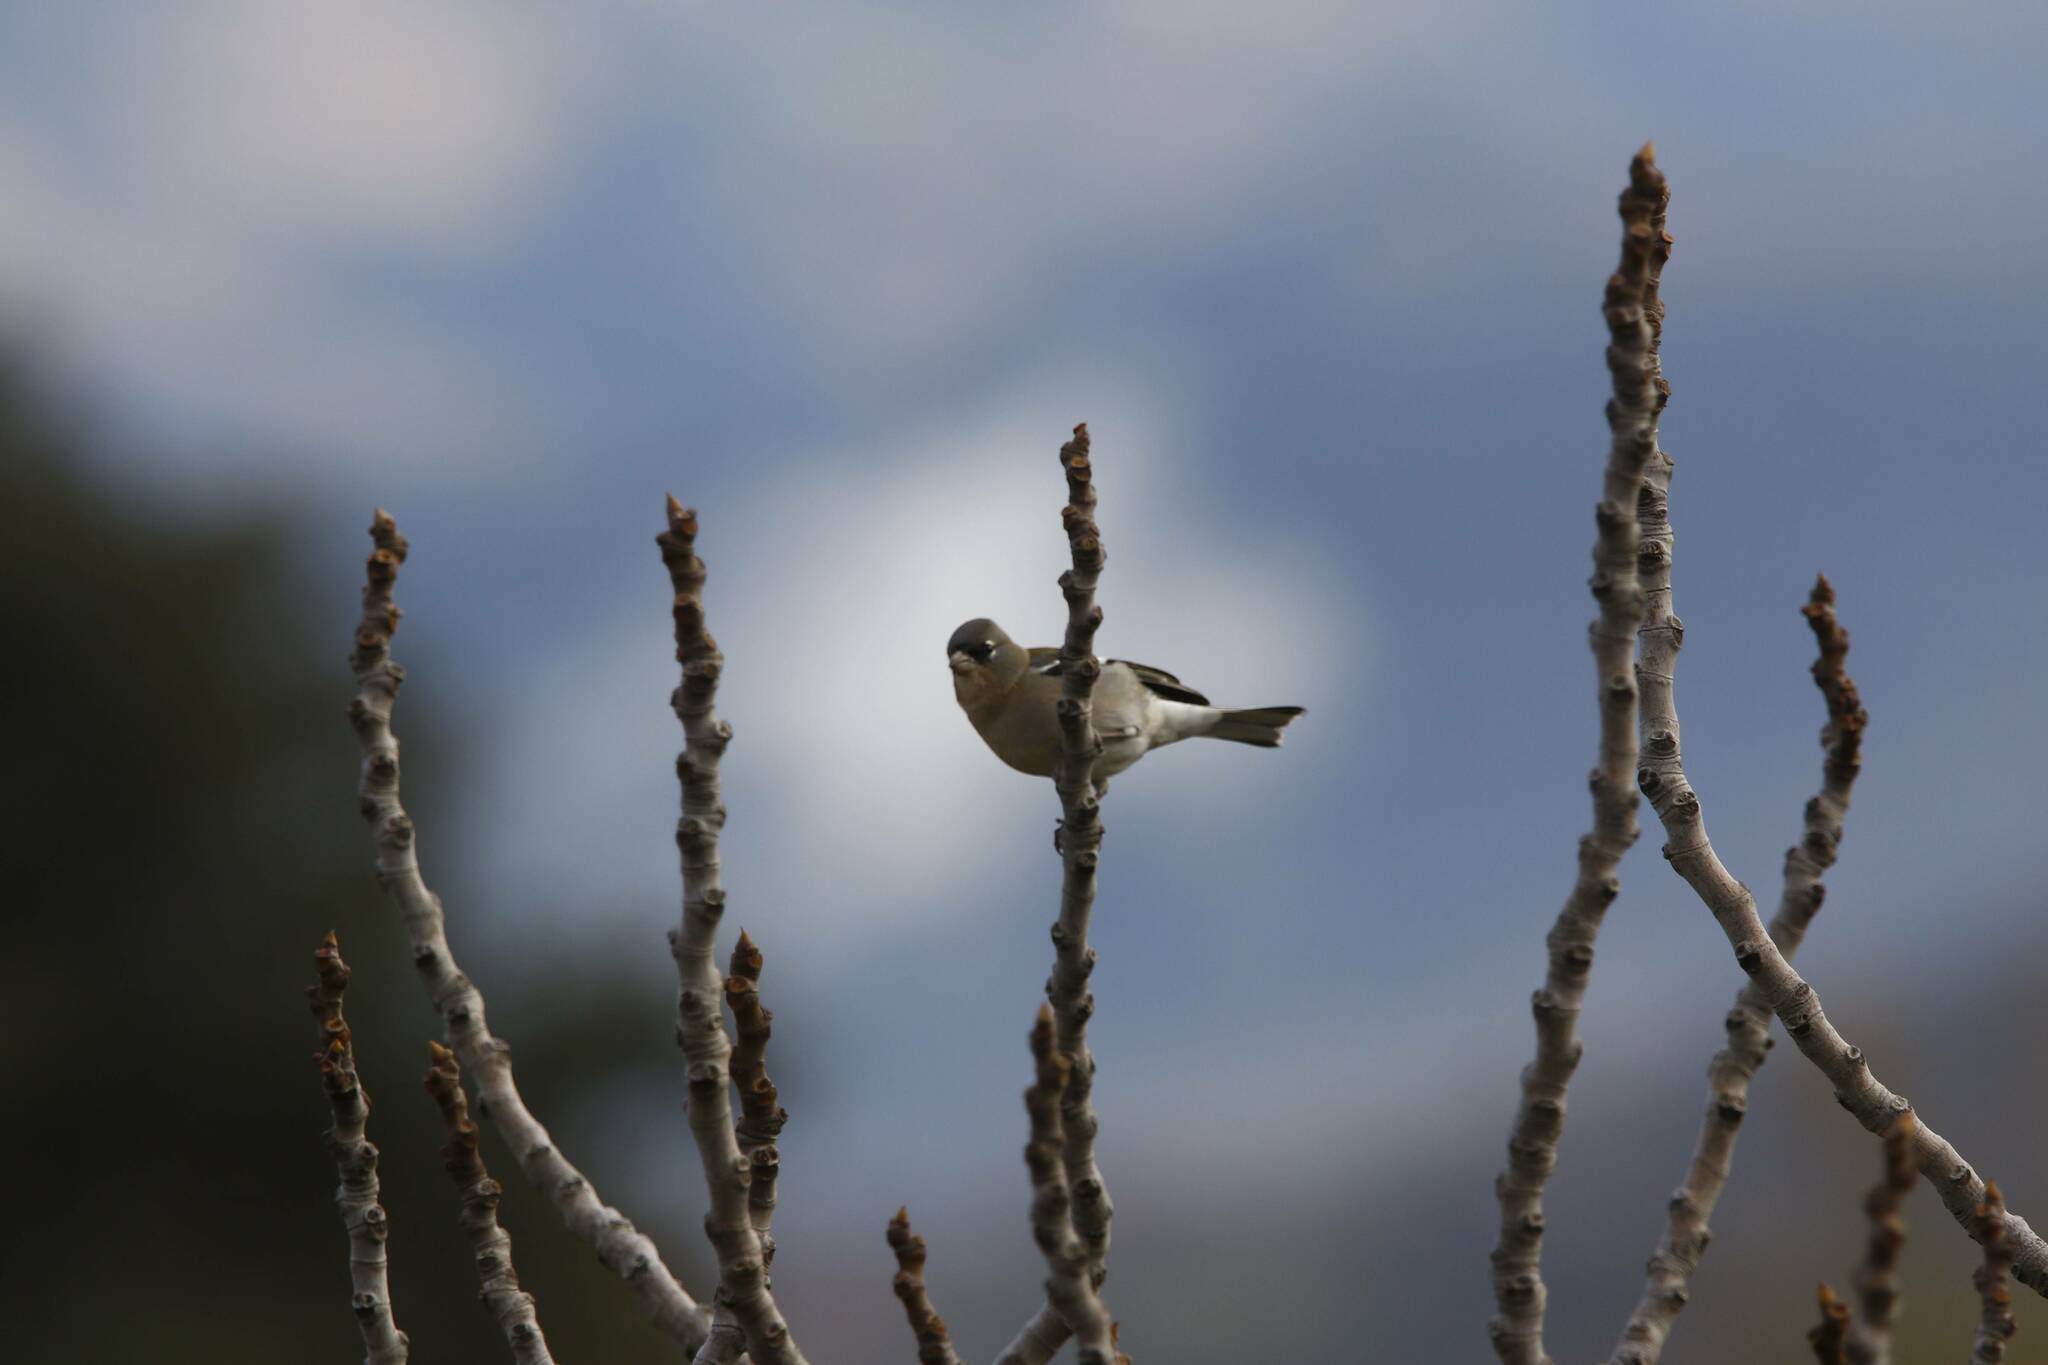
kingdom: Animalia
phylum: Chordata
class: Aves
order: Passeriformes
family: Fringillidae
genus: Fringilla
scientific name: Fringilla spodiogenys
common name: African chaffinch
